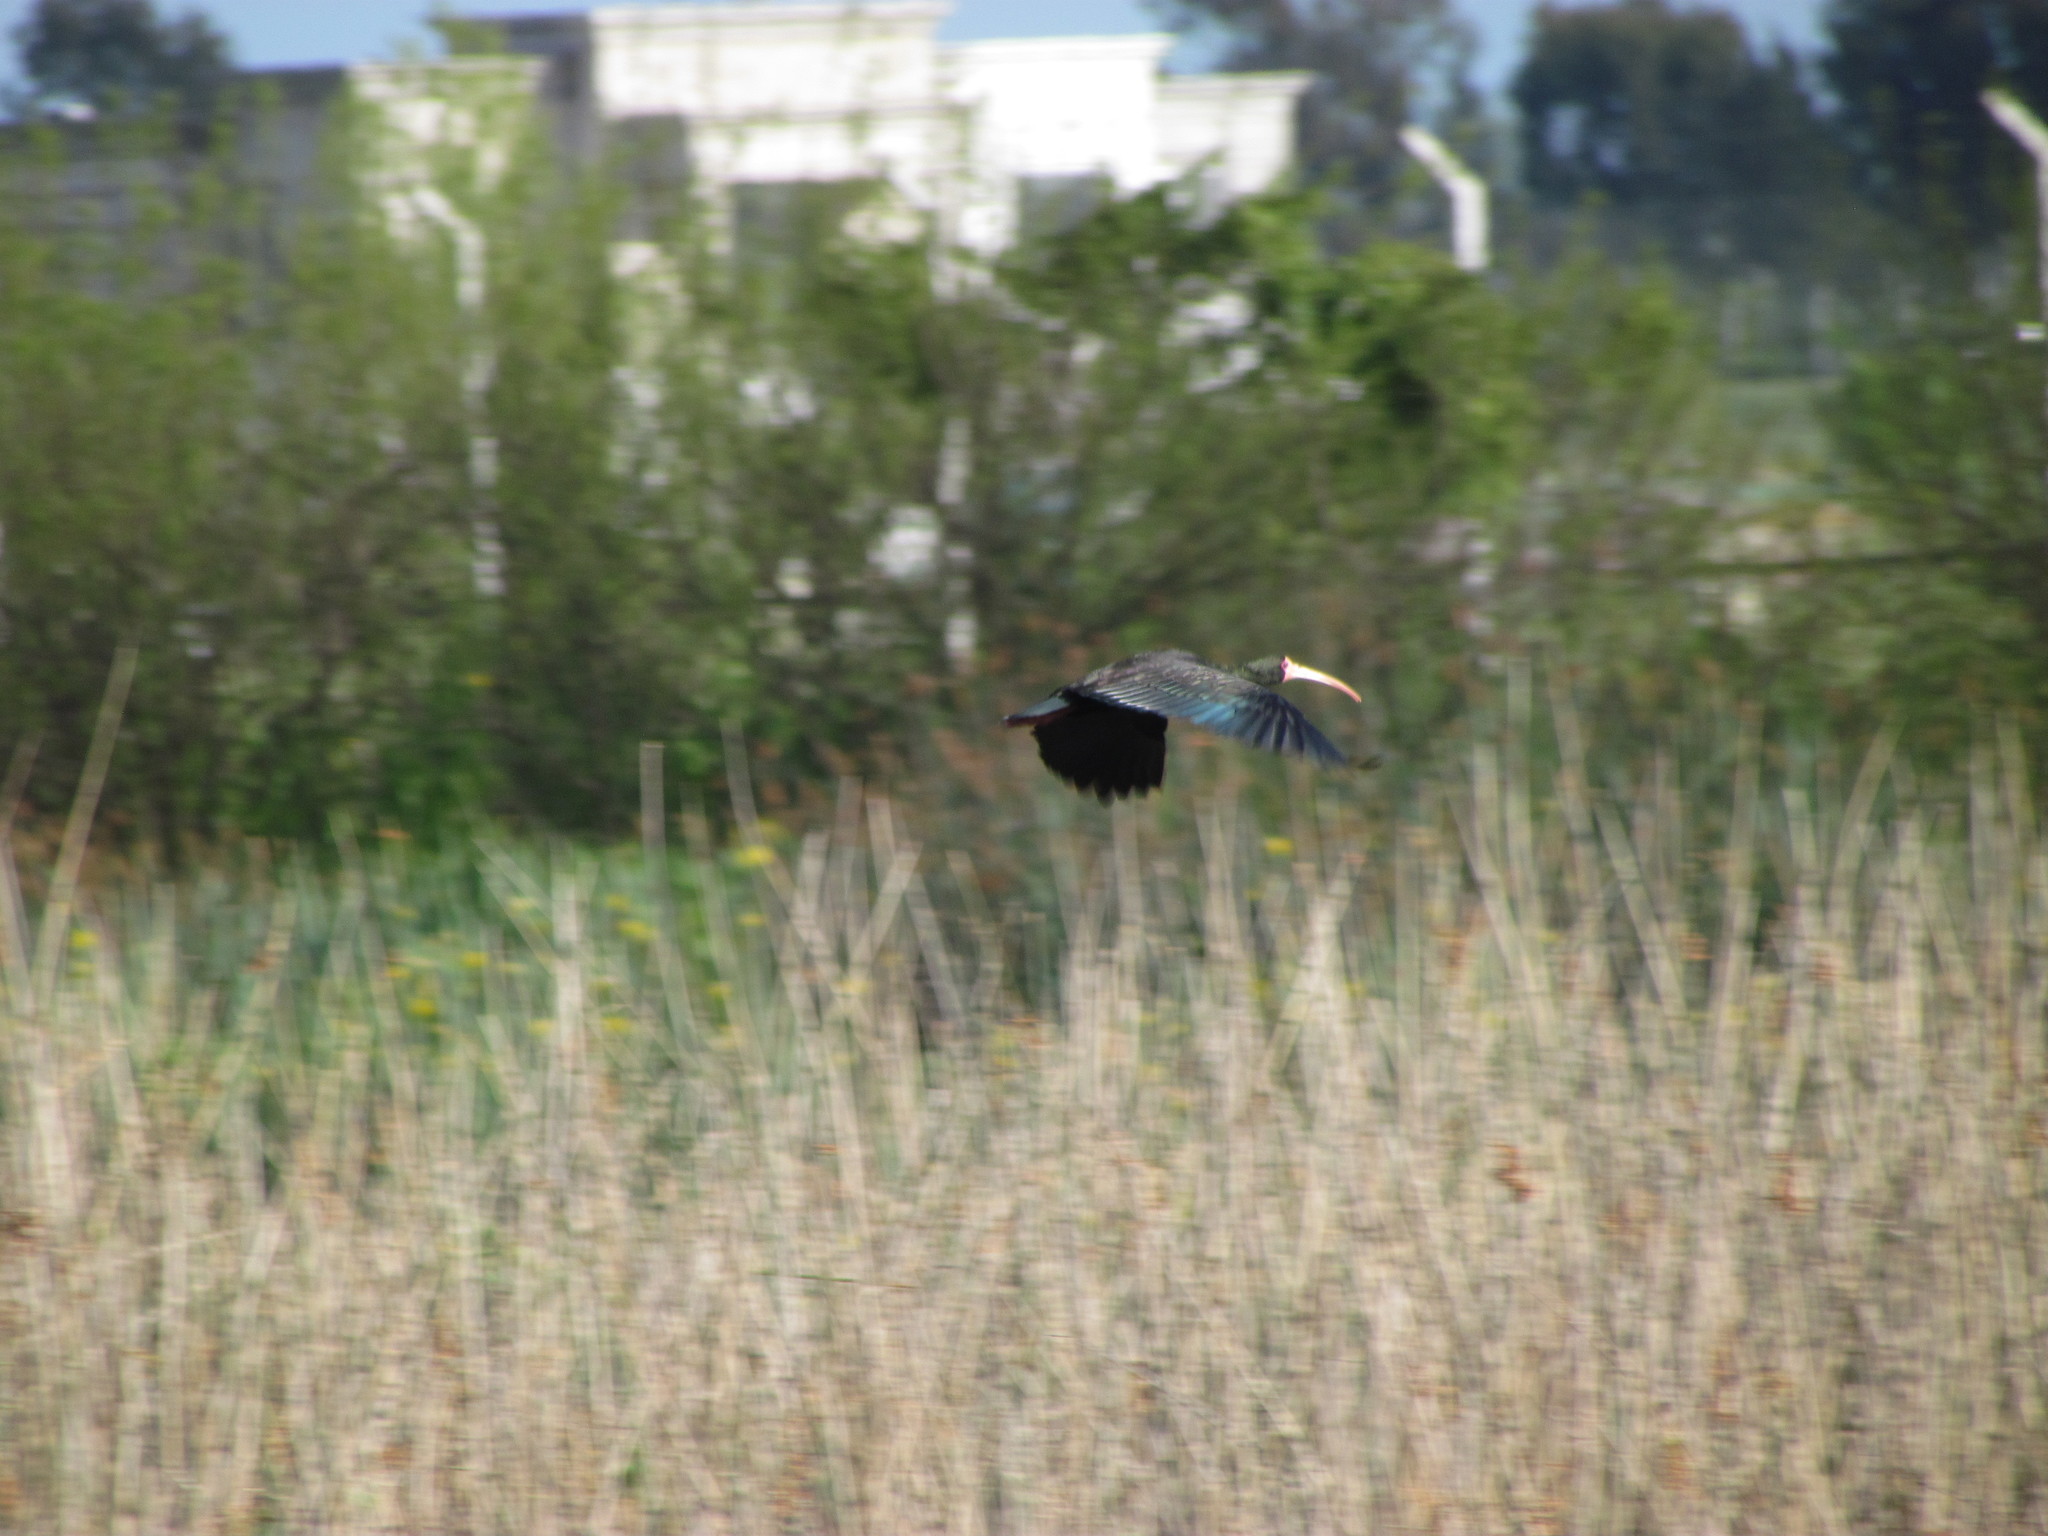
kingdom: Animalia
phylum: Chordata
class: Aves
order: Pelecaniformes
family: Threskiornithidae
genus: Phimosus
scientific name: Phimosus infuscatus
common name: Bare-faced ibis
